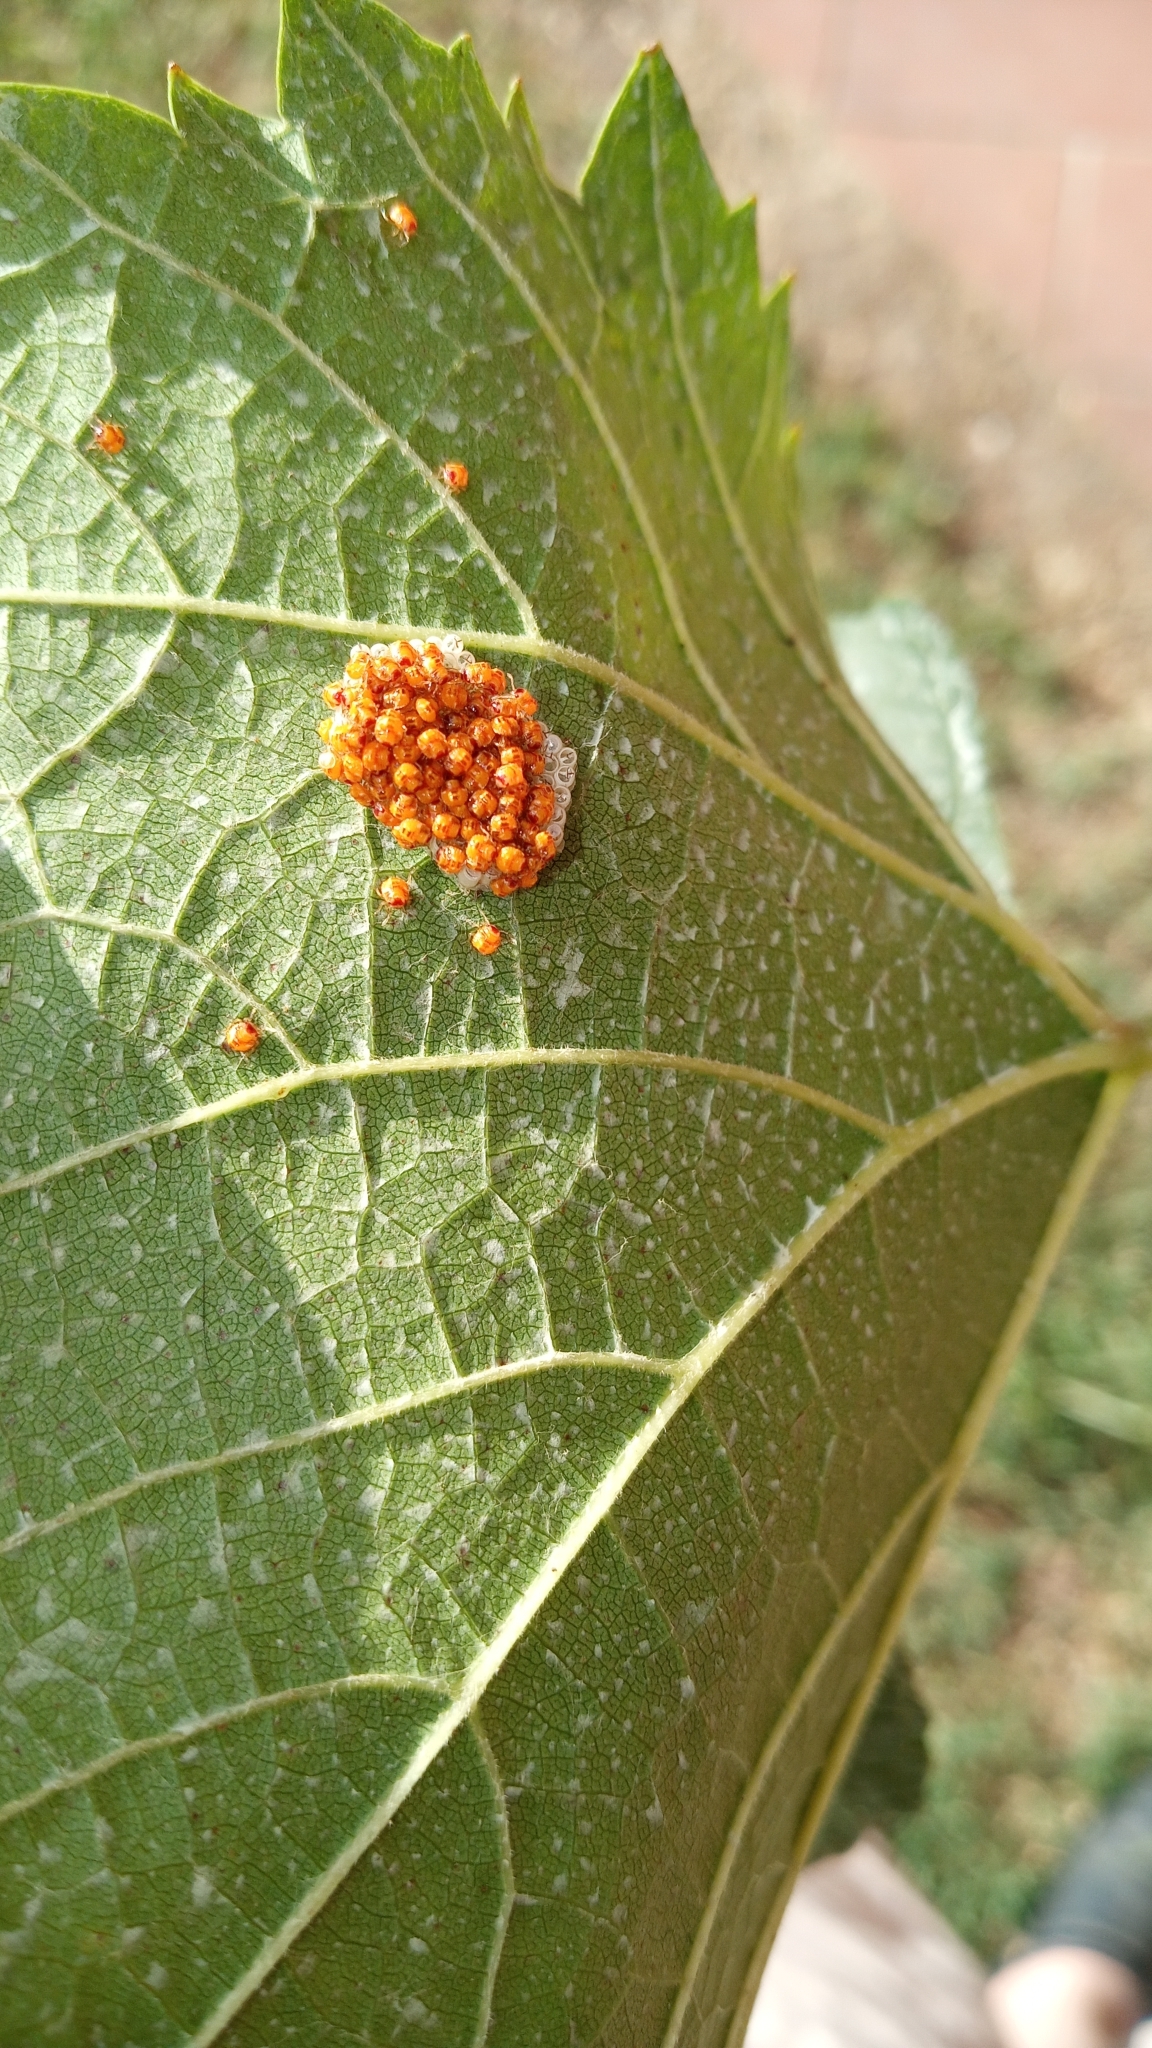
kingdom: Animalia
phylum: Arthropoda
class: Insecta
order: Hemiptera
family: Pentatomidae
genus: Nezara
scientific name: Nezara viridula
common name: Southern green stink bug
